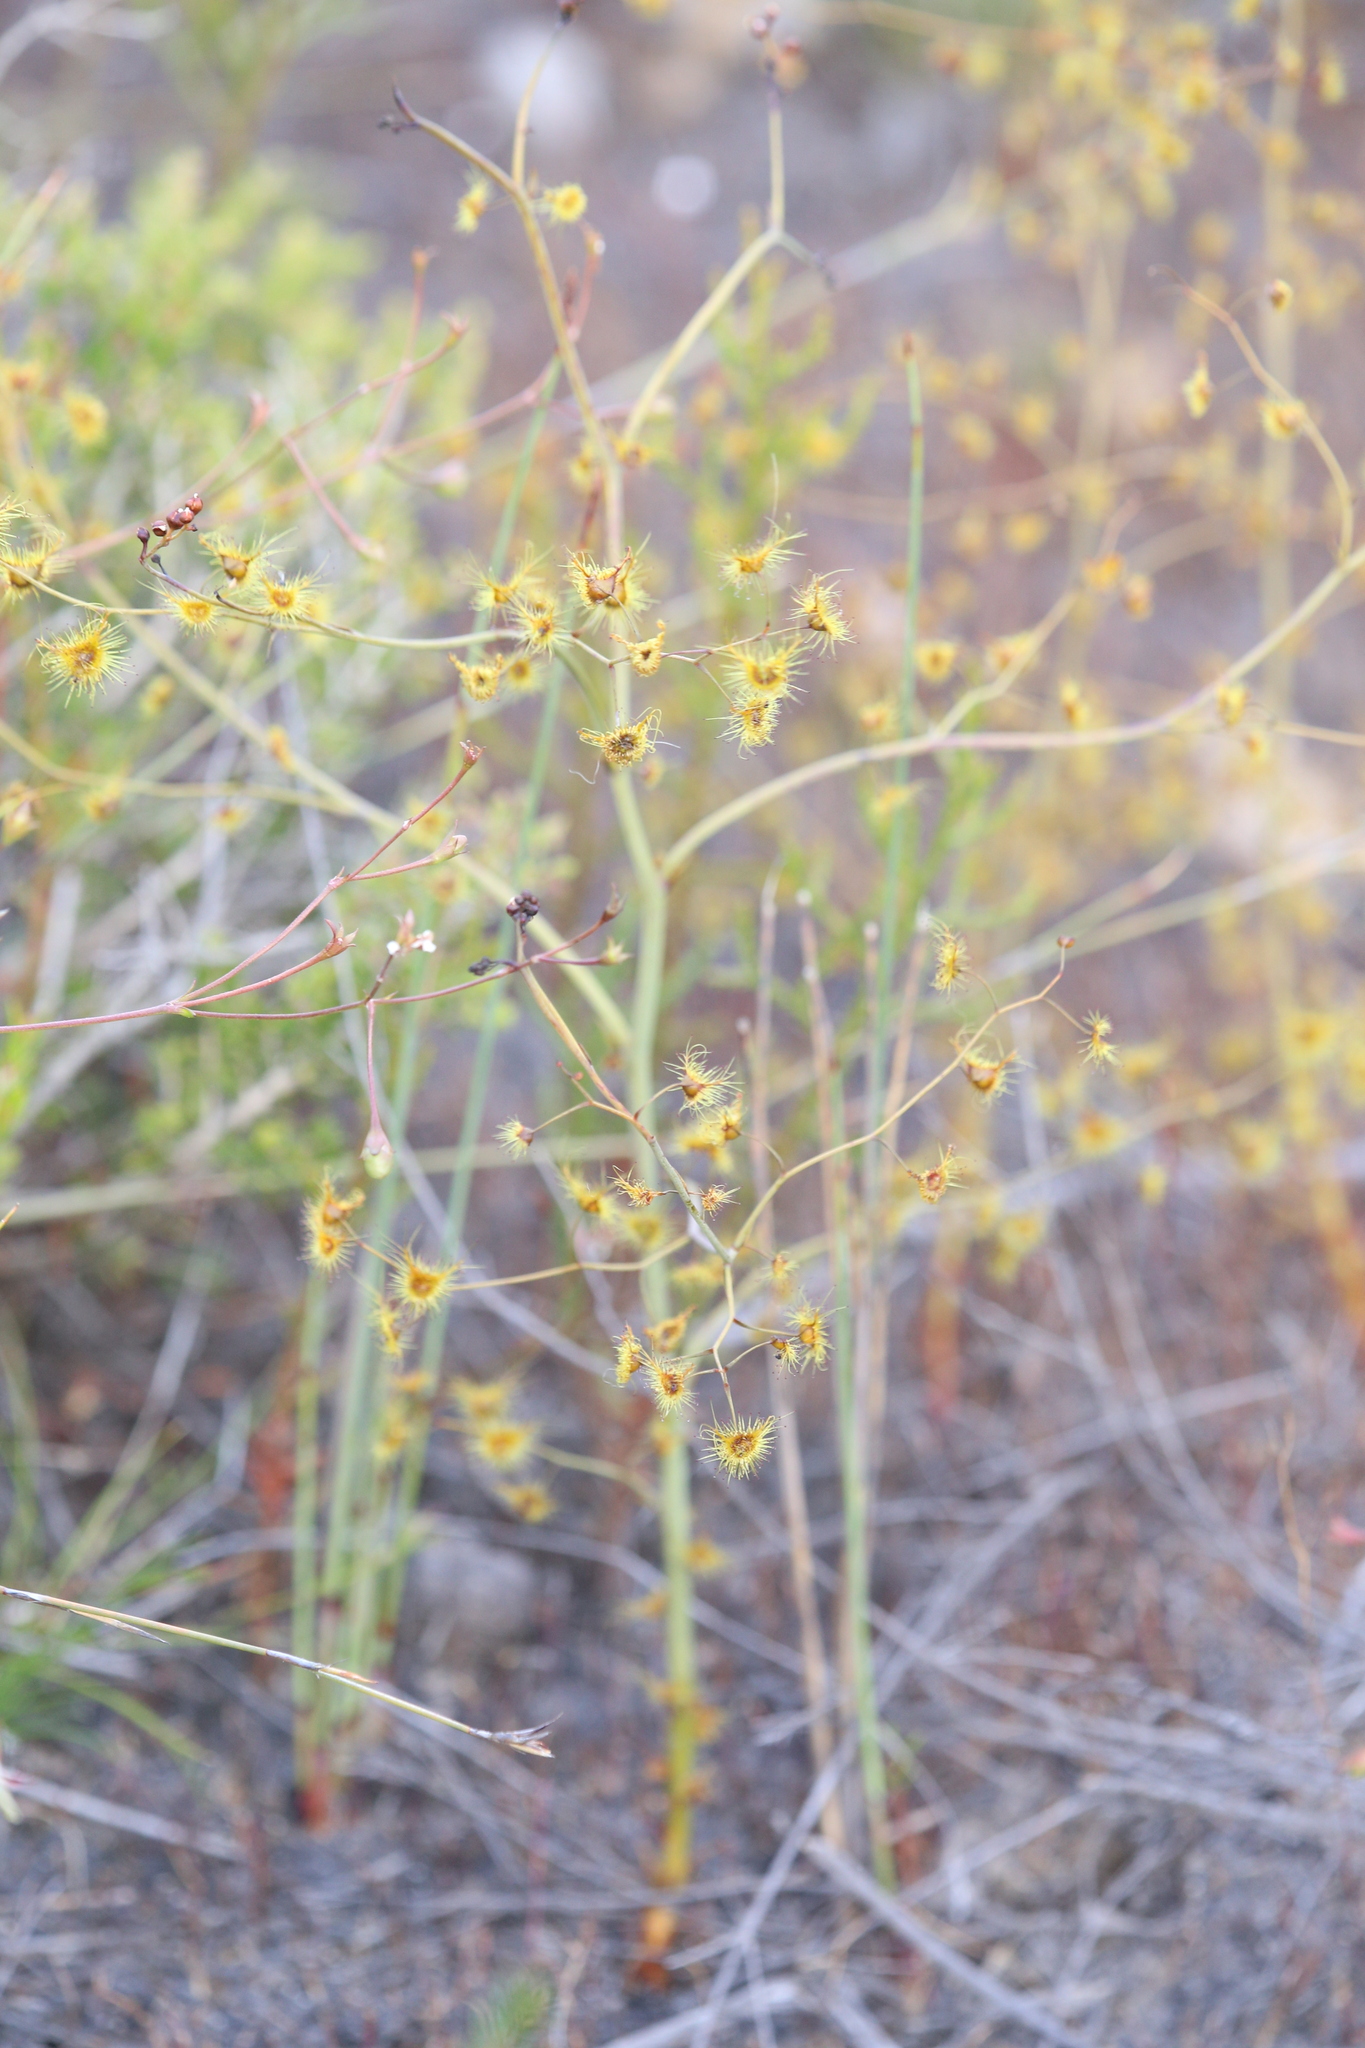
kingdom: Plantae
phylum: Tracheophyta
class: Magnoliopsida
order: Caryophyllales
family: Droseraceae
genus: Drosera
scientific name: Drosera gigantea
